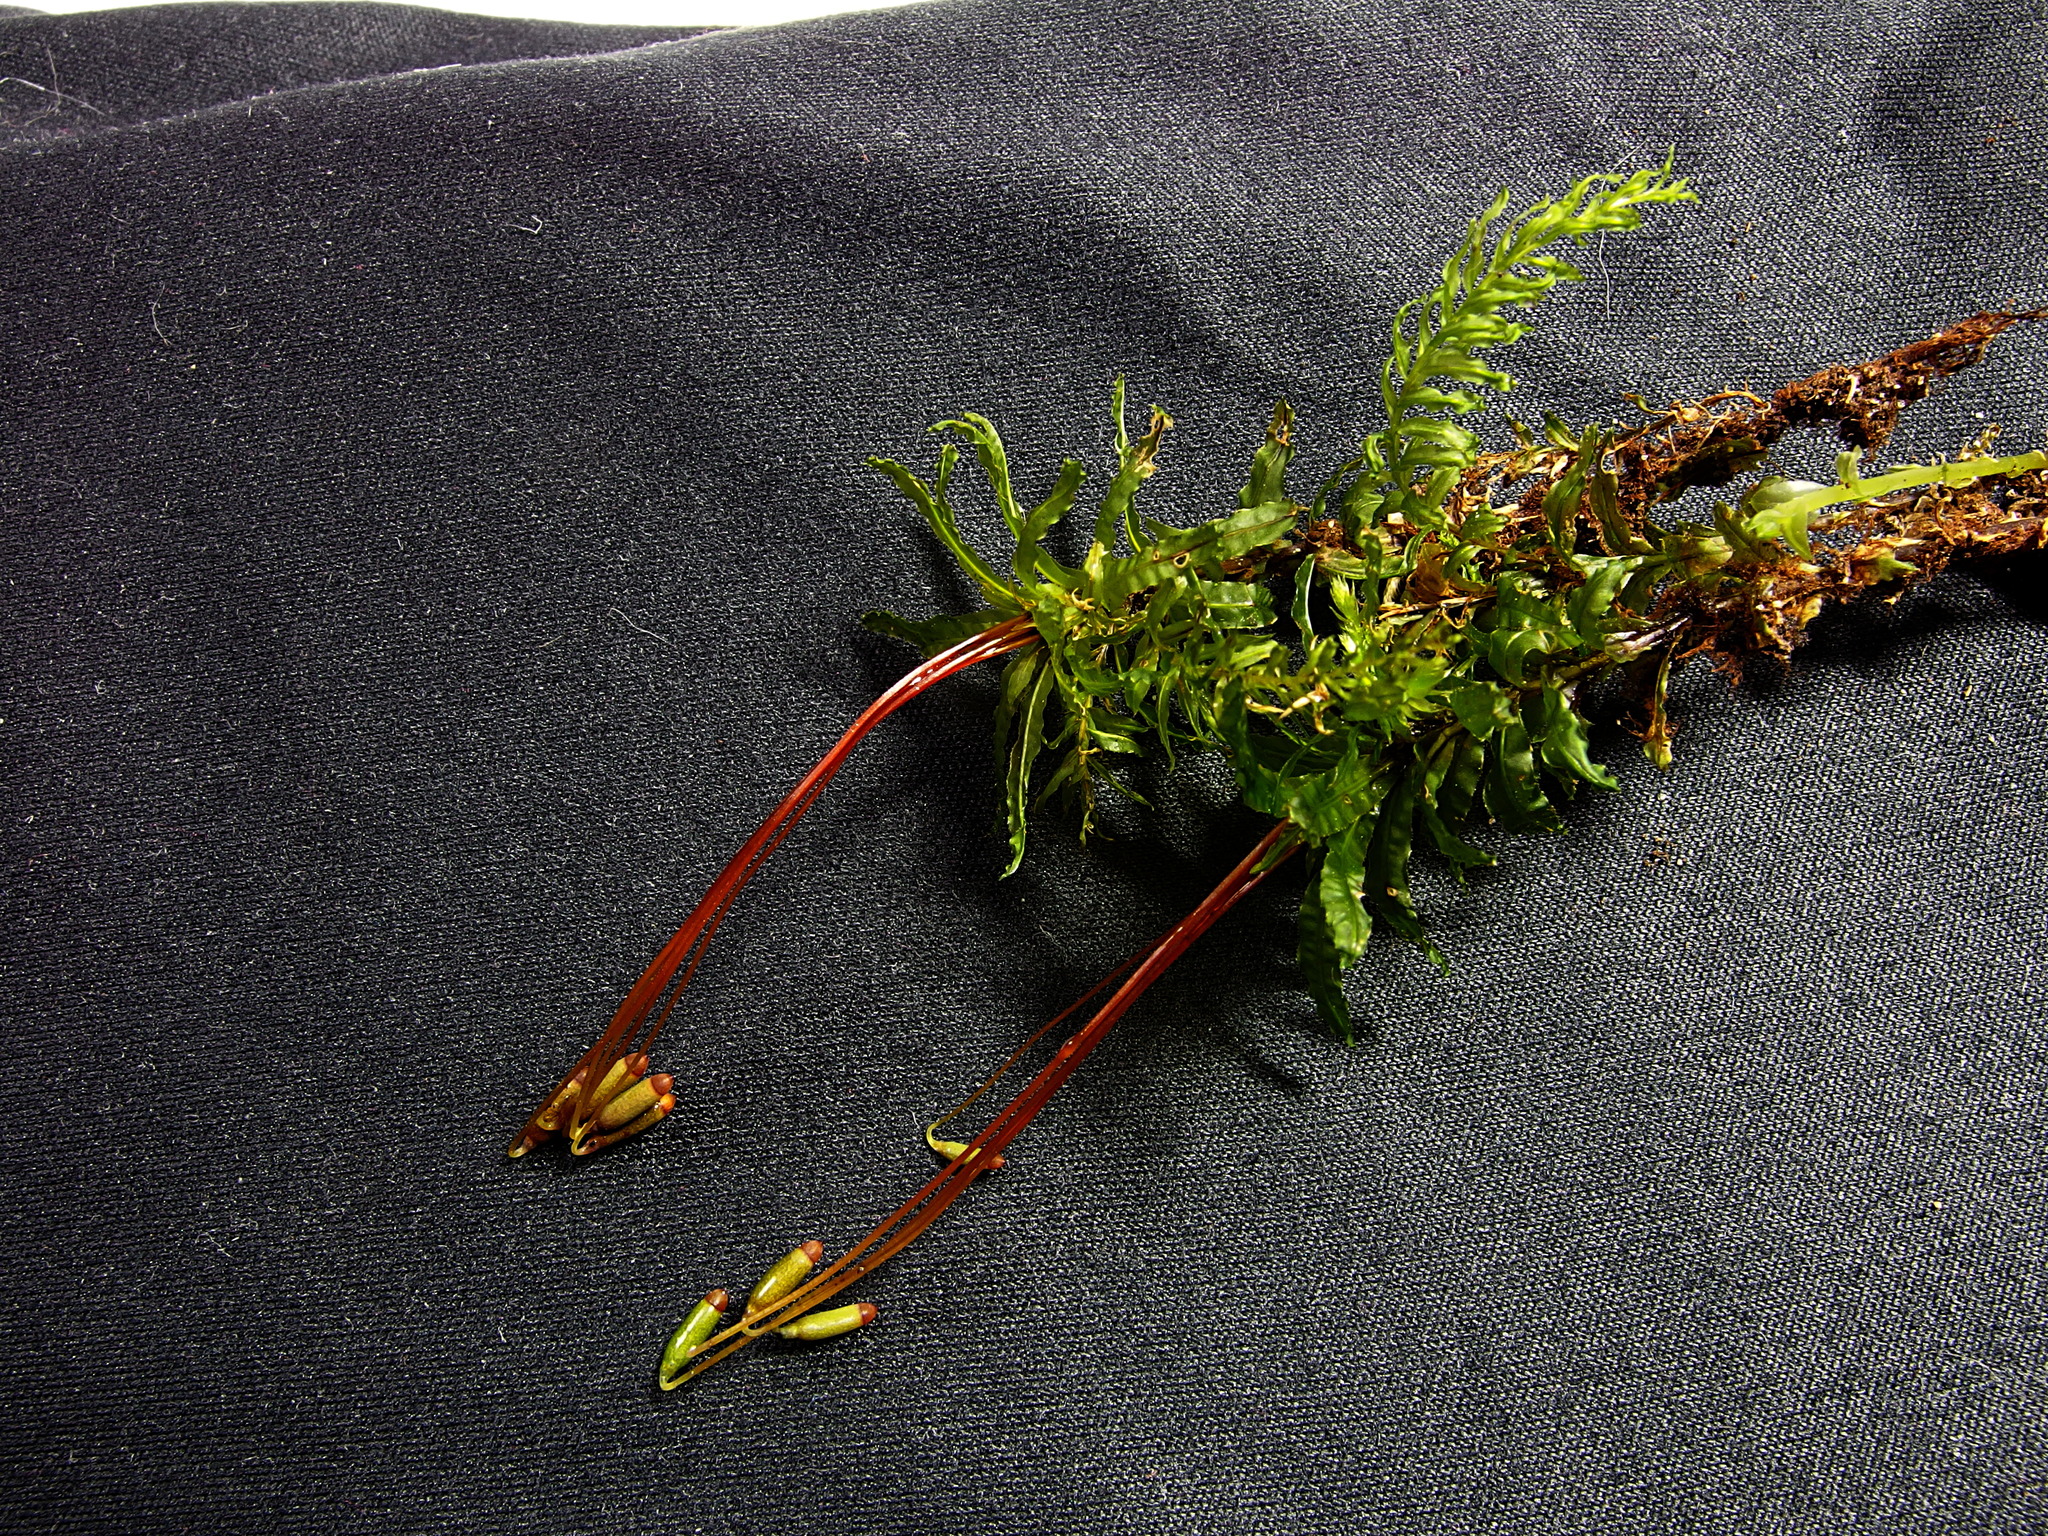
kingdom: Plantae
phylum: Bryophyta
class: Bryopsida
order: Bryales
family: Mniaceae
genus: Plagiomnium
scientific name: Plagiomnium undulatum
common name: Hart's-tongue thyme-moss
